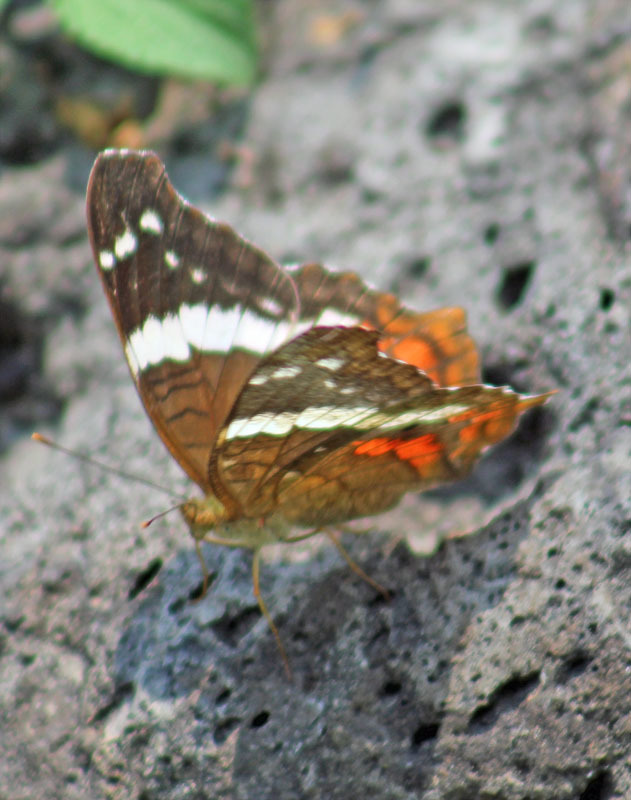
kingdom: Animalia
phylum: Arthropoda
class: Insecta
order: Lepidoptera
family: Nymphalidae
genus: Anartia
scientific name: Anartia fatima
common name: Banded peacock
